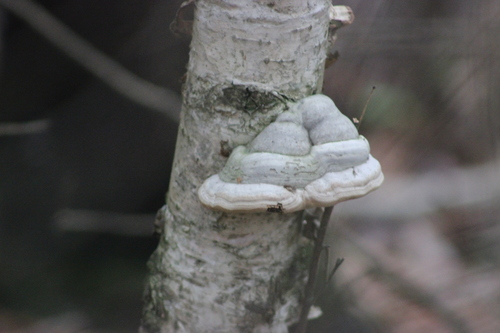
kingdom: Fungi
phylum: Basidiomycota
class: Agaricomycetes
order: Polyporales
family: Polyporaceae
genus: Fomes
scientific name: Fomes fomentarius
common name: Hoof fungus
